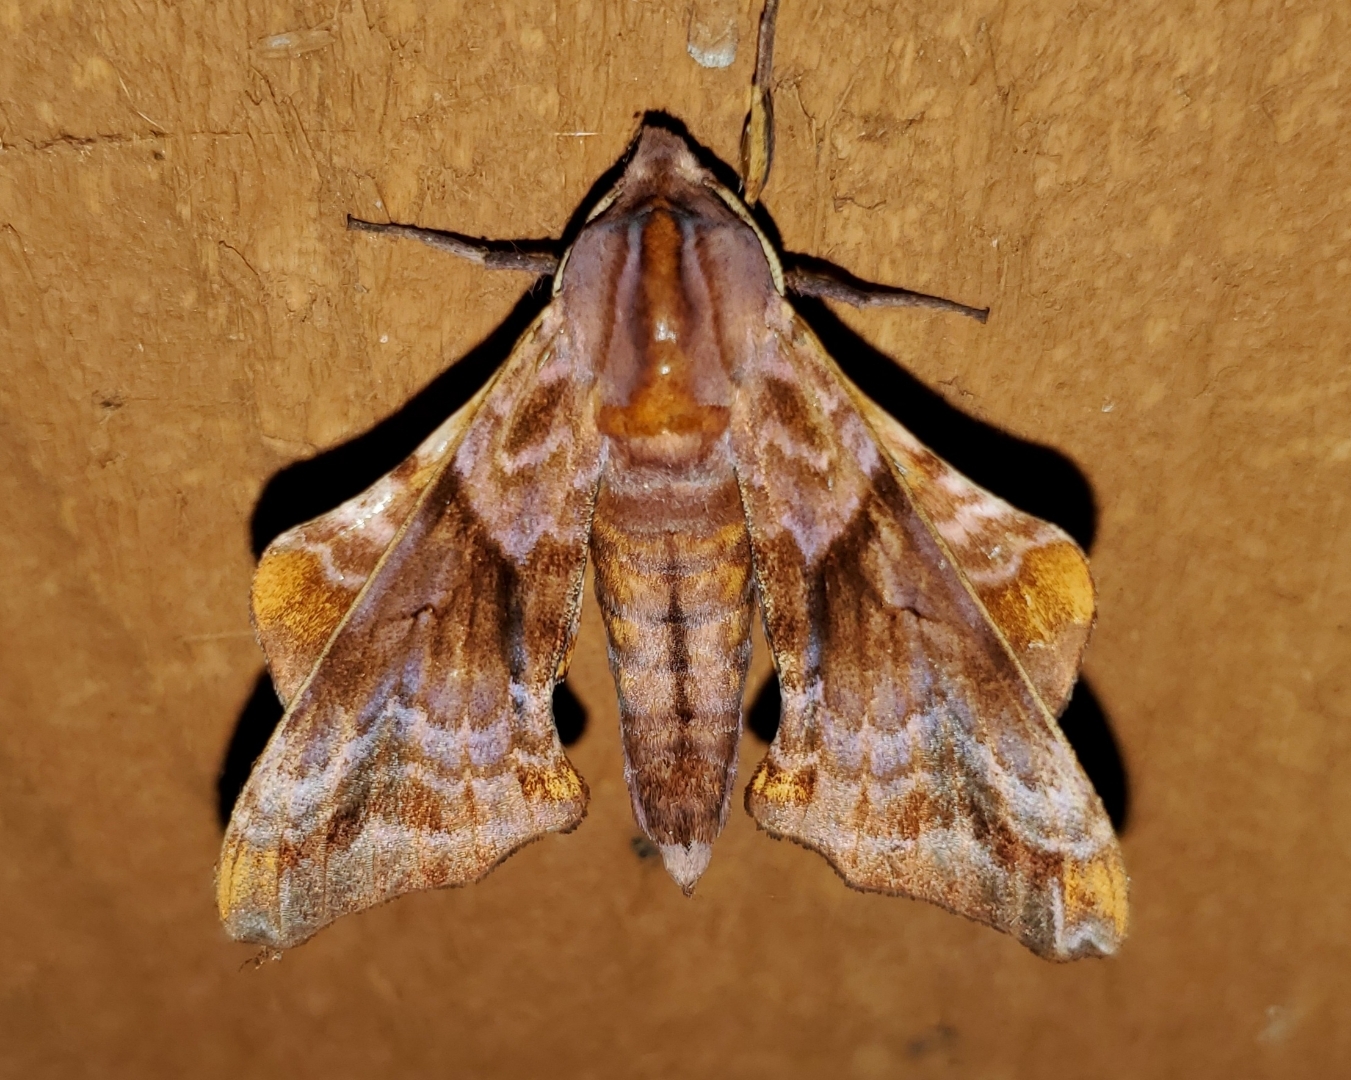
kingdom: Animalia
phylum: Arthropoda
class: Insecta
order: Lepidoptera
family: Sphingidae
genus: Paonias
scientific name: Paonias myops
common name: Small-eyed sphinx
